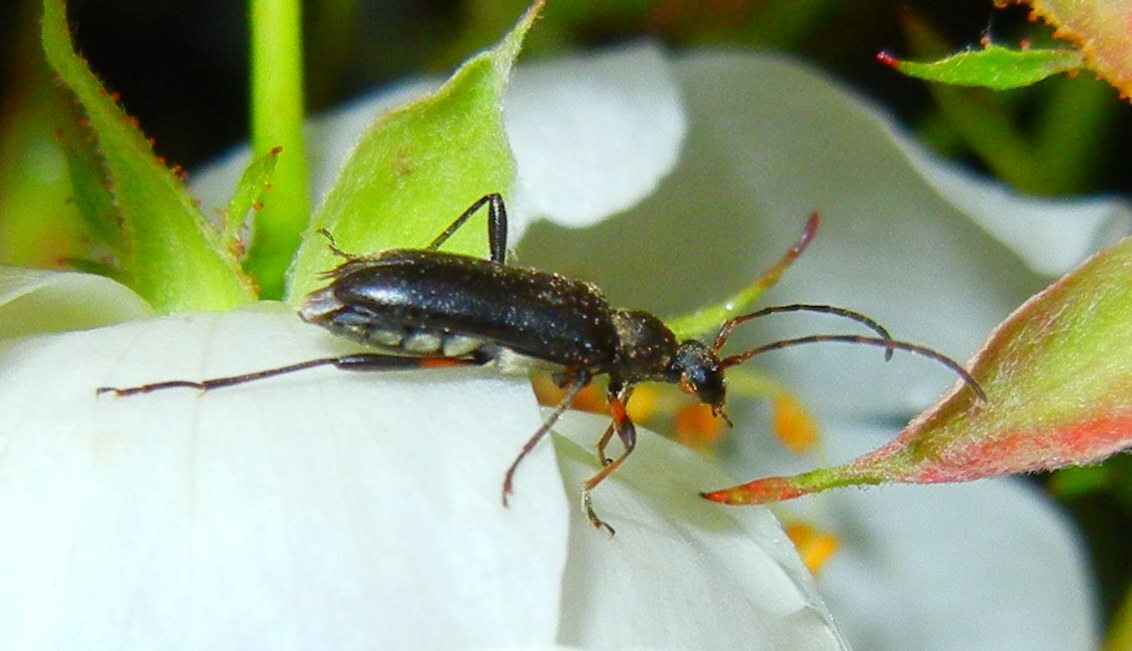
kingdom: Animalia
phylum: Arthropoda
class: Insecta
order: Coleoptera
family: Cerambycidae
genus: Grammoptera
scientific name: Grammoptera ruficornis
